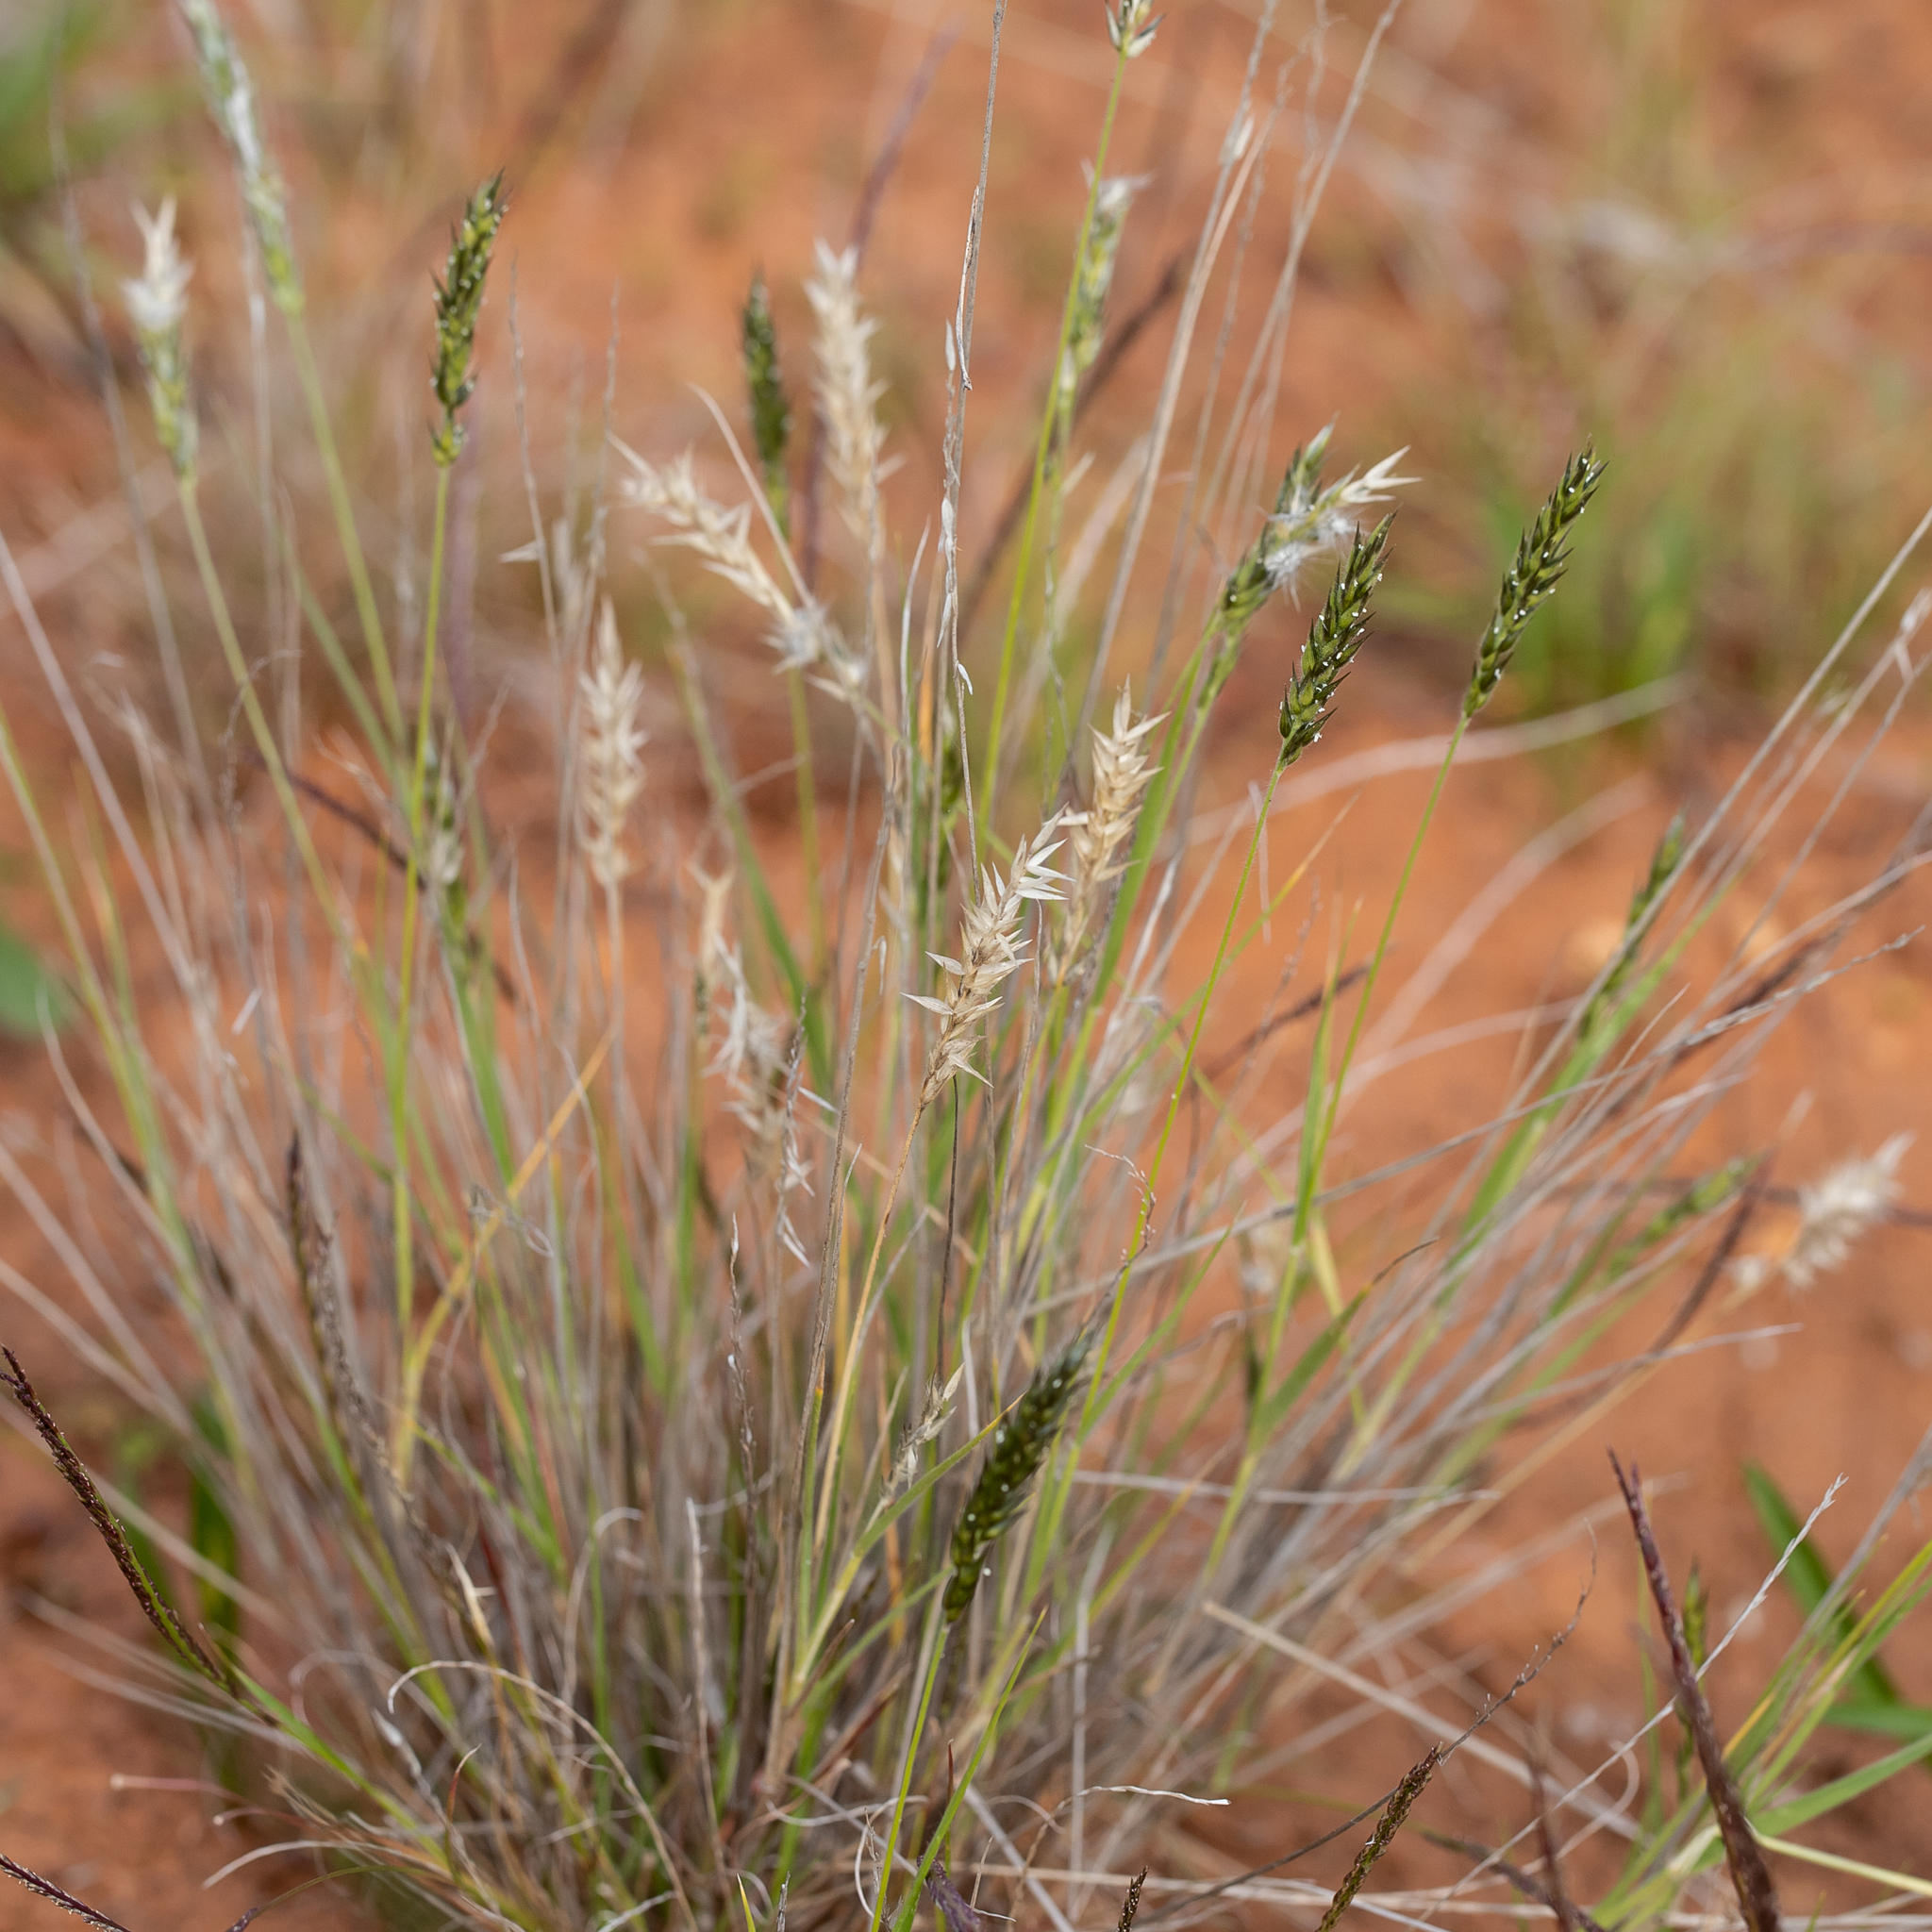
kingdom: Plantae
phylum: Tracheophyta
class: Liliopsida
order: Poales
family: Poaceae
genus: Enneapogon
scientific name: Enneapogon polyphyllus
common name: Leafy nineawn
